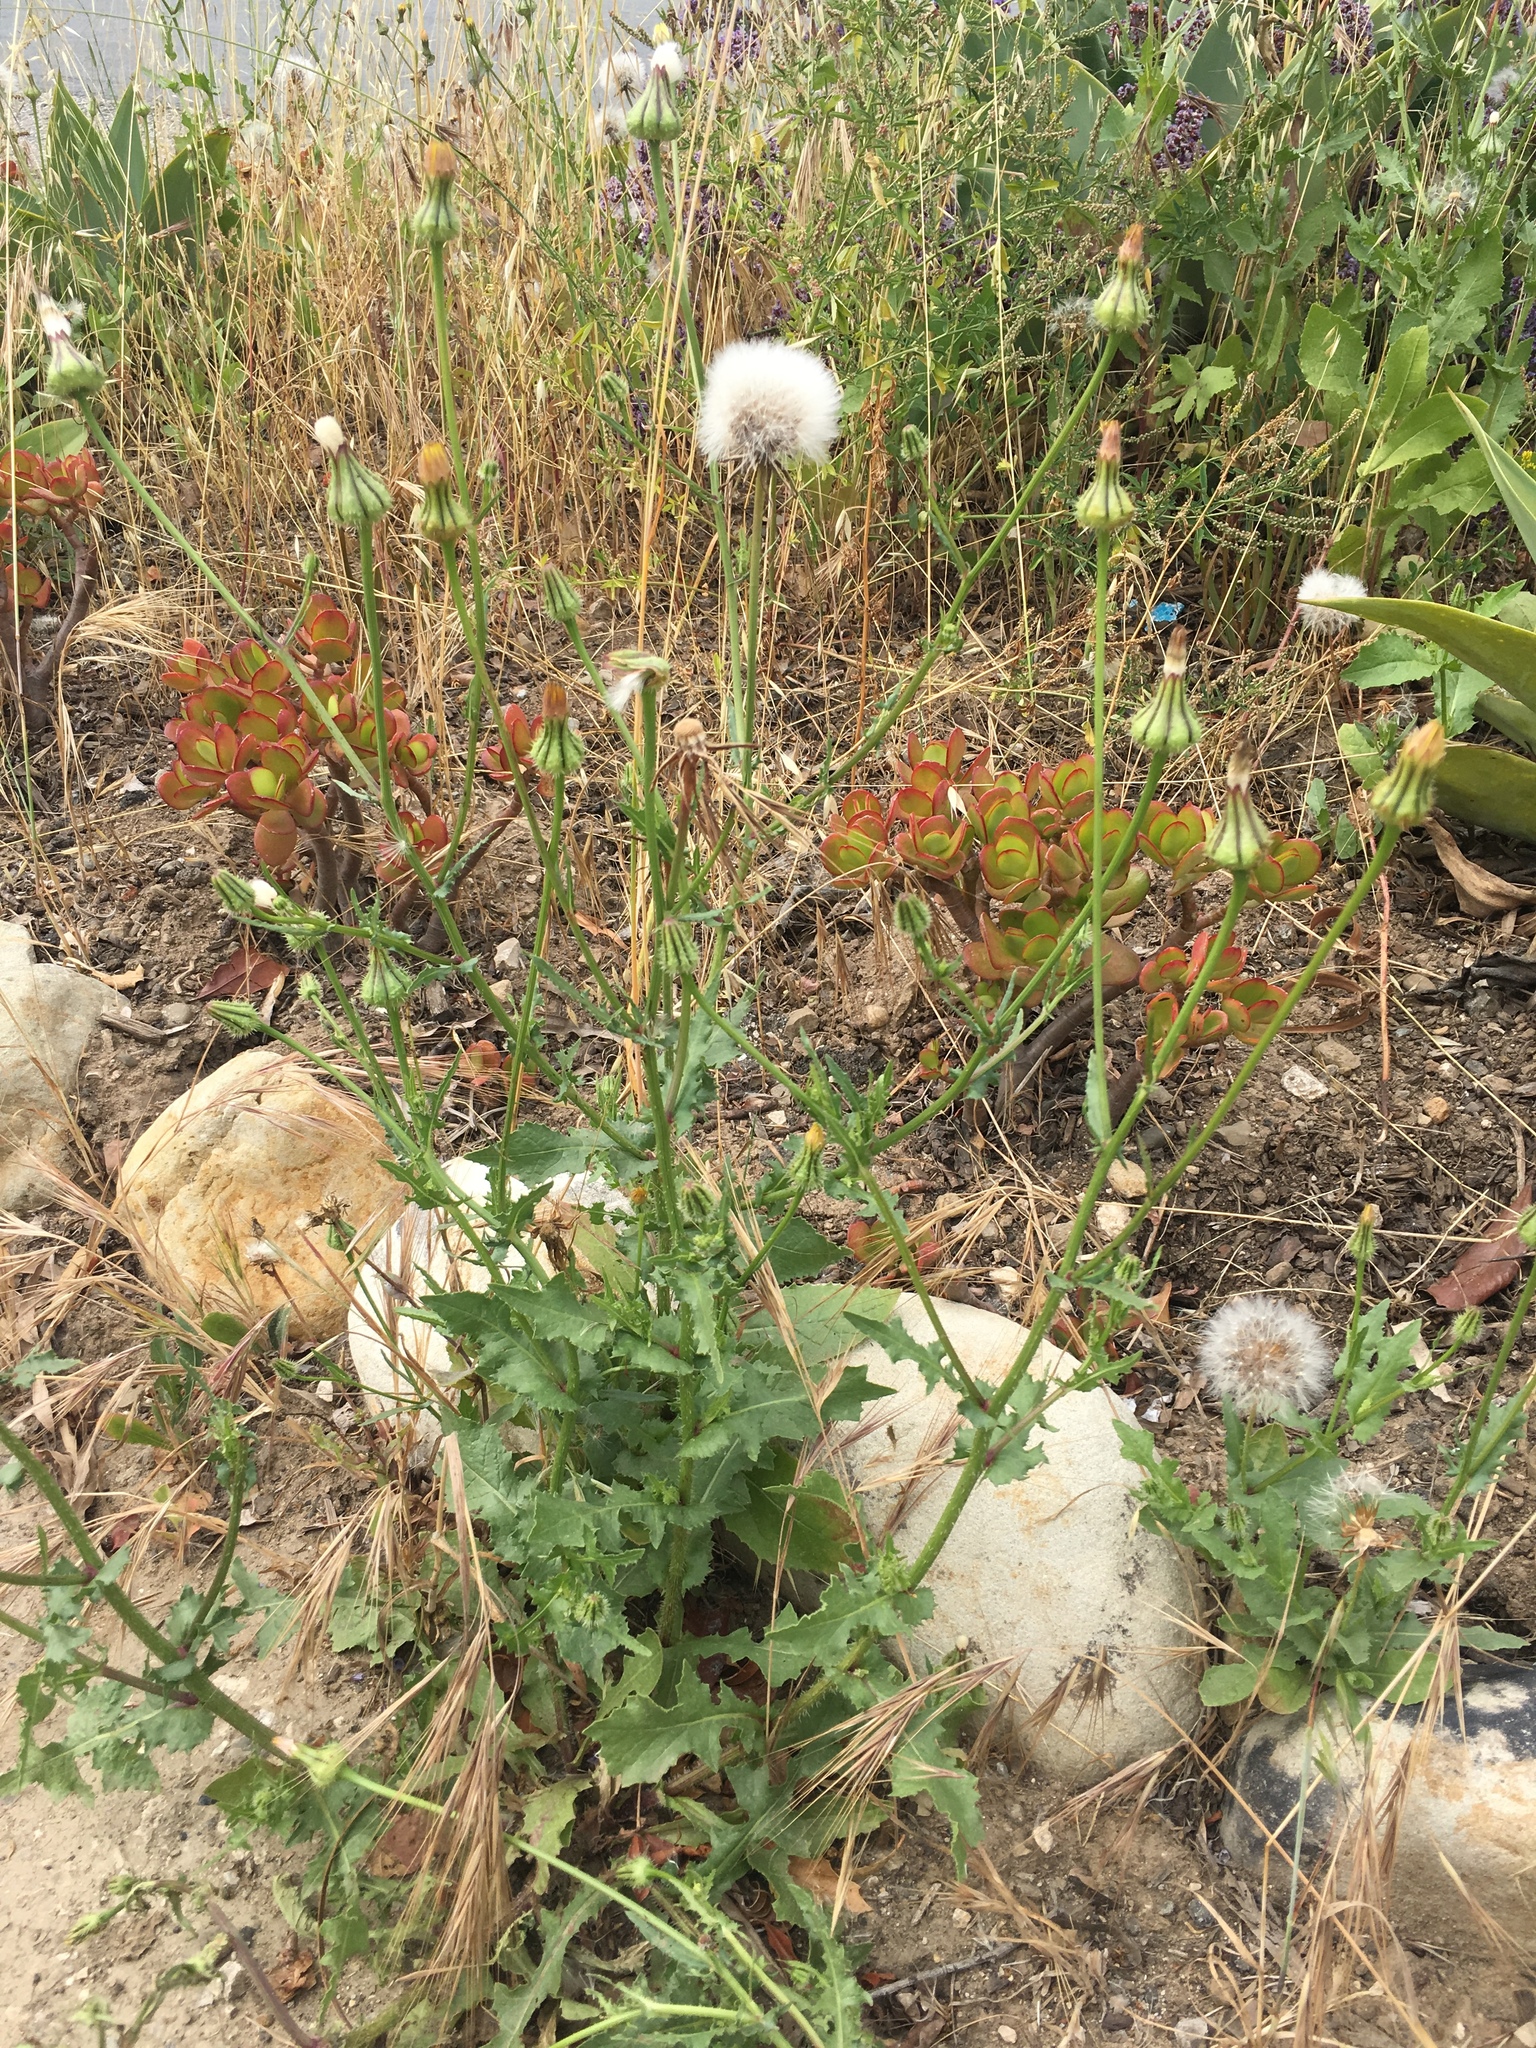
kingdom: Plantae
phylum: Tracheophyta
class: Magnoliopsida
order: Asterales
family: Asteraceae
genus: Urospermum
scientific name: Urospermum picroides
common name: False hawkbit
